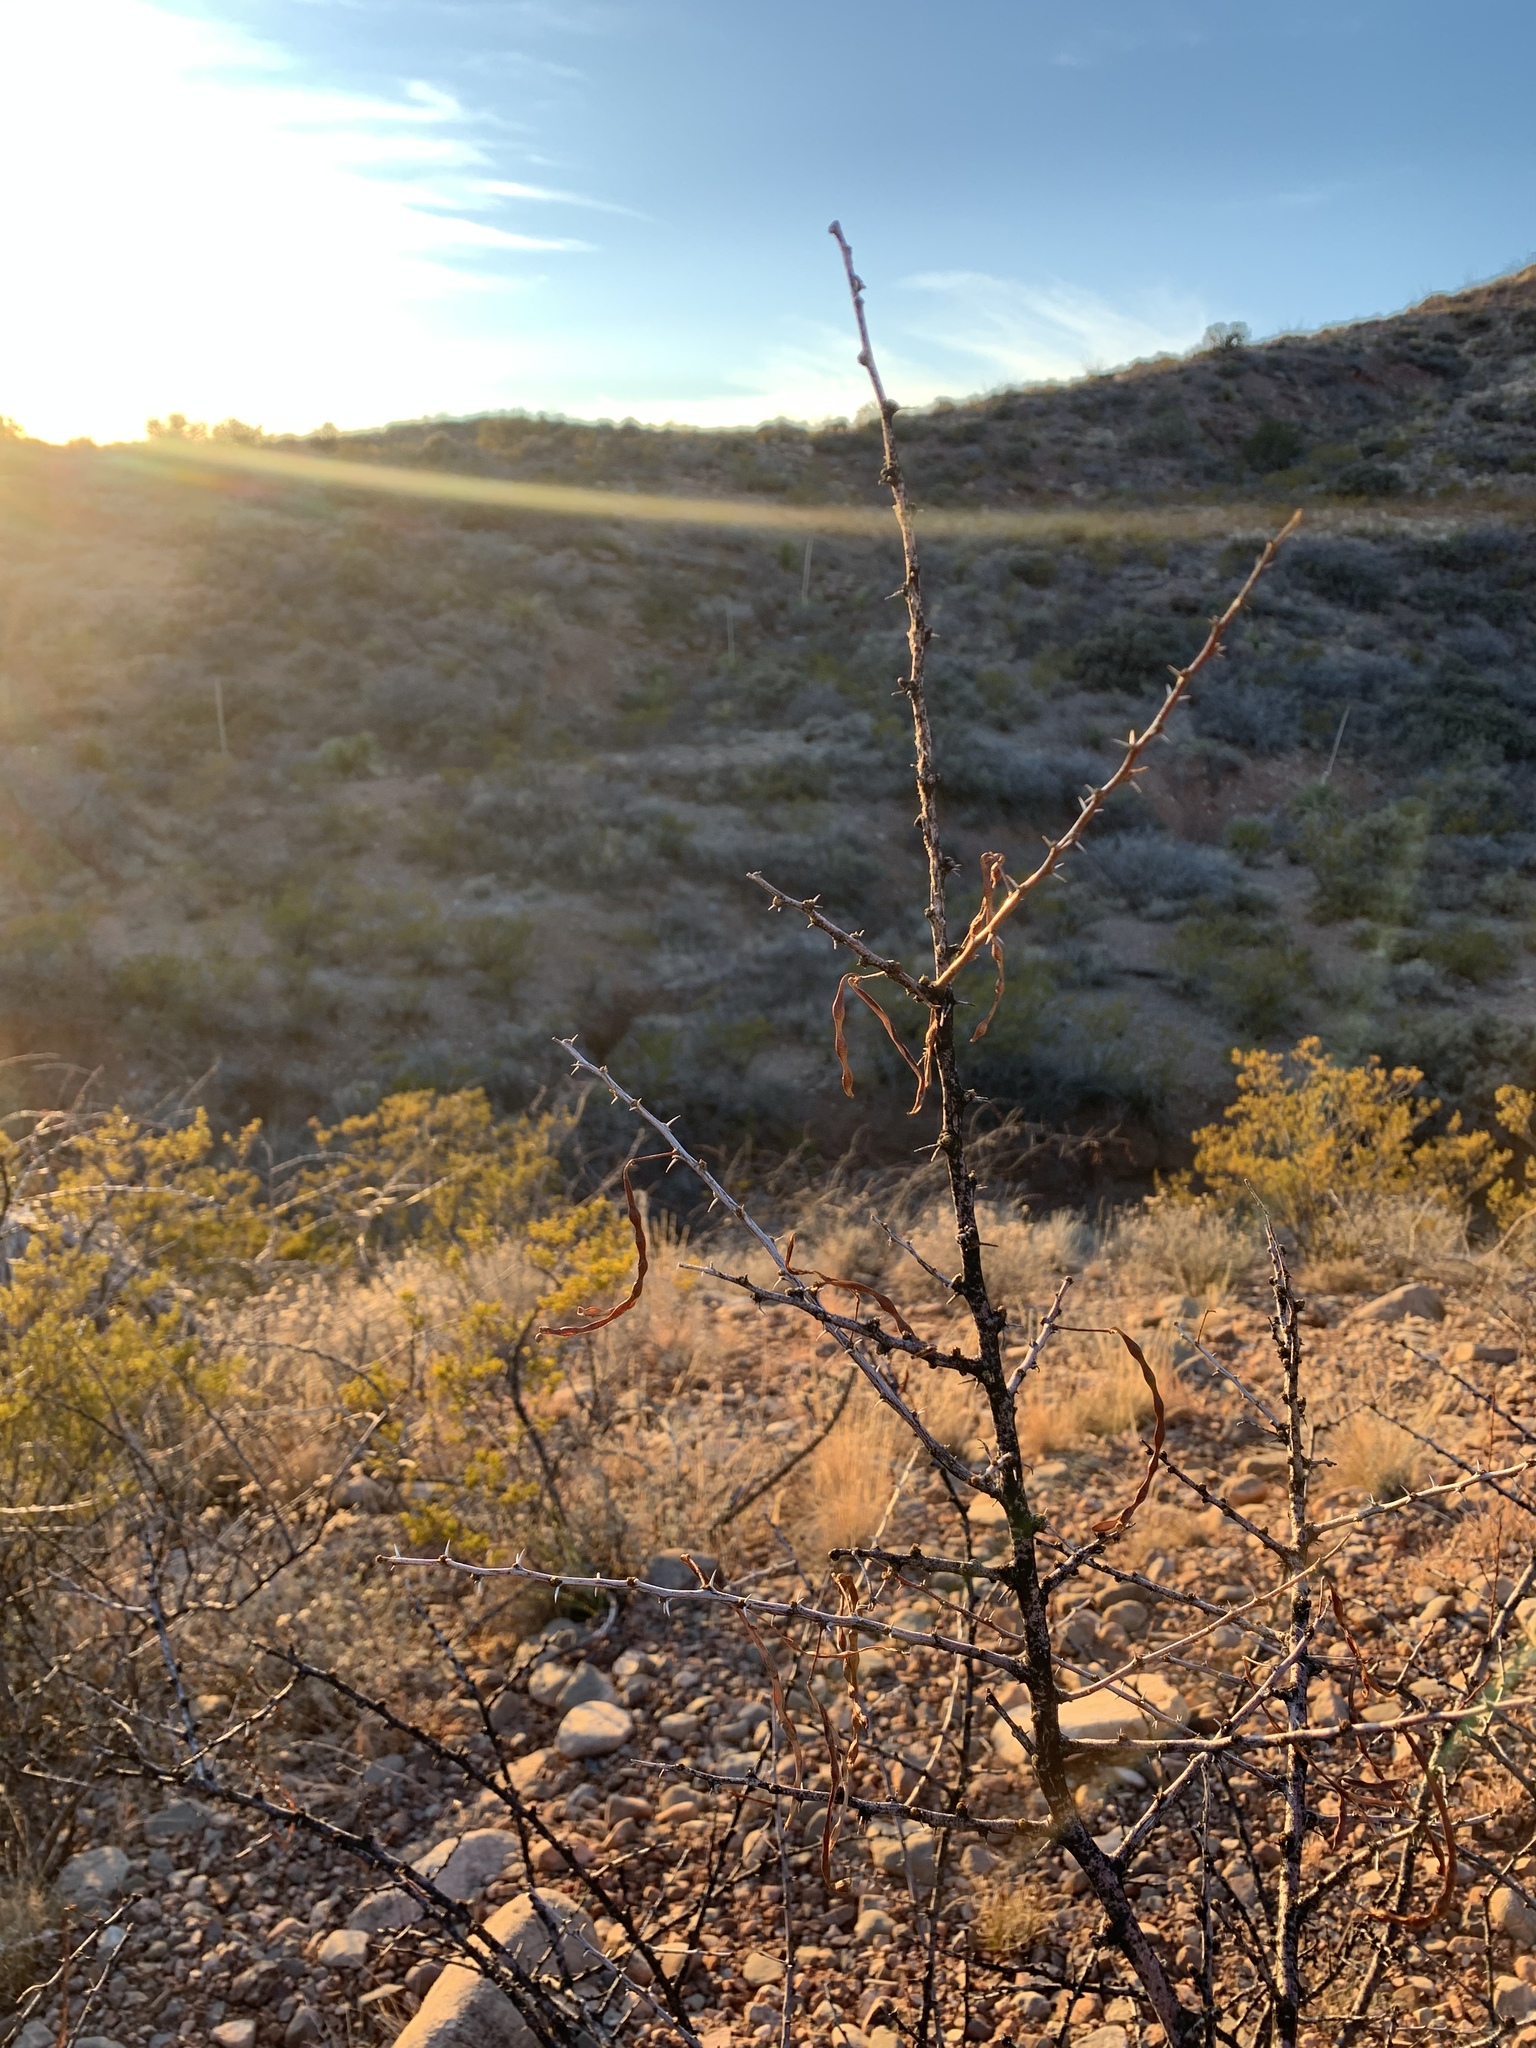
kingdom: Plantae
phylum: Tracheophyta
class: Magnoliopsida
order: Fabales
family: Fabaceae
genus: Vachellia
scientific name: Vachellia constricta
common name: Mescat acacia
